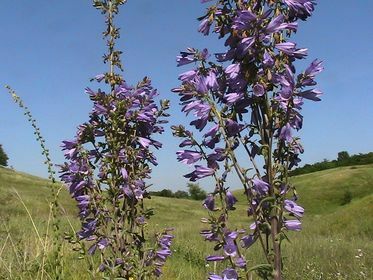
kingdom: Plantae
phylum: Tracheophyta
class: Magnoliopsida
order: Asterales
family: Campanulaceae
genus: Campanula
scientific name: Campanula bononiensis
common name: Pale bellflower
